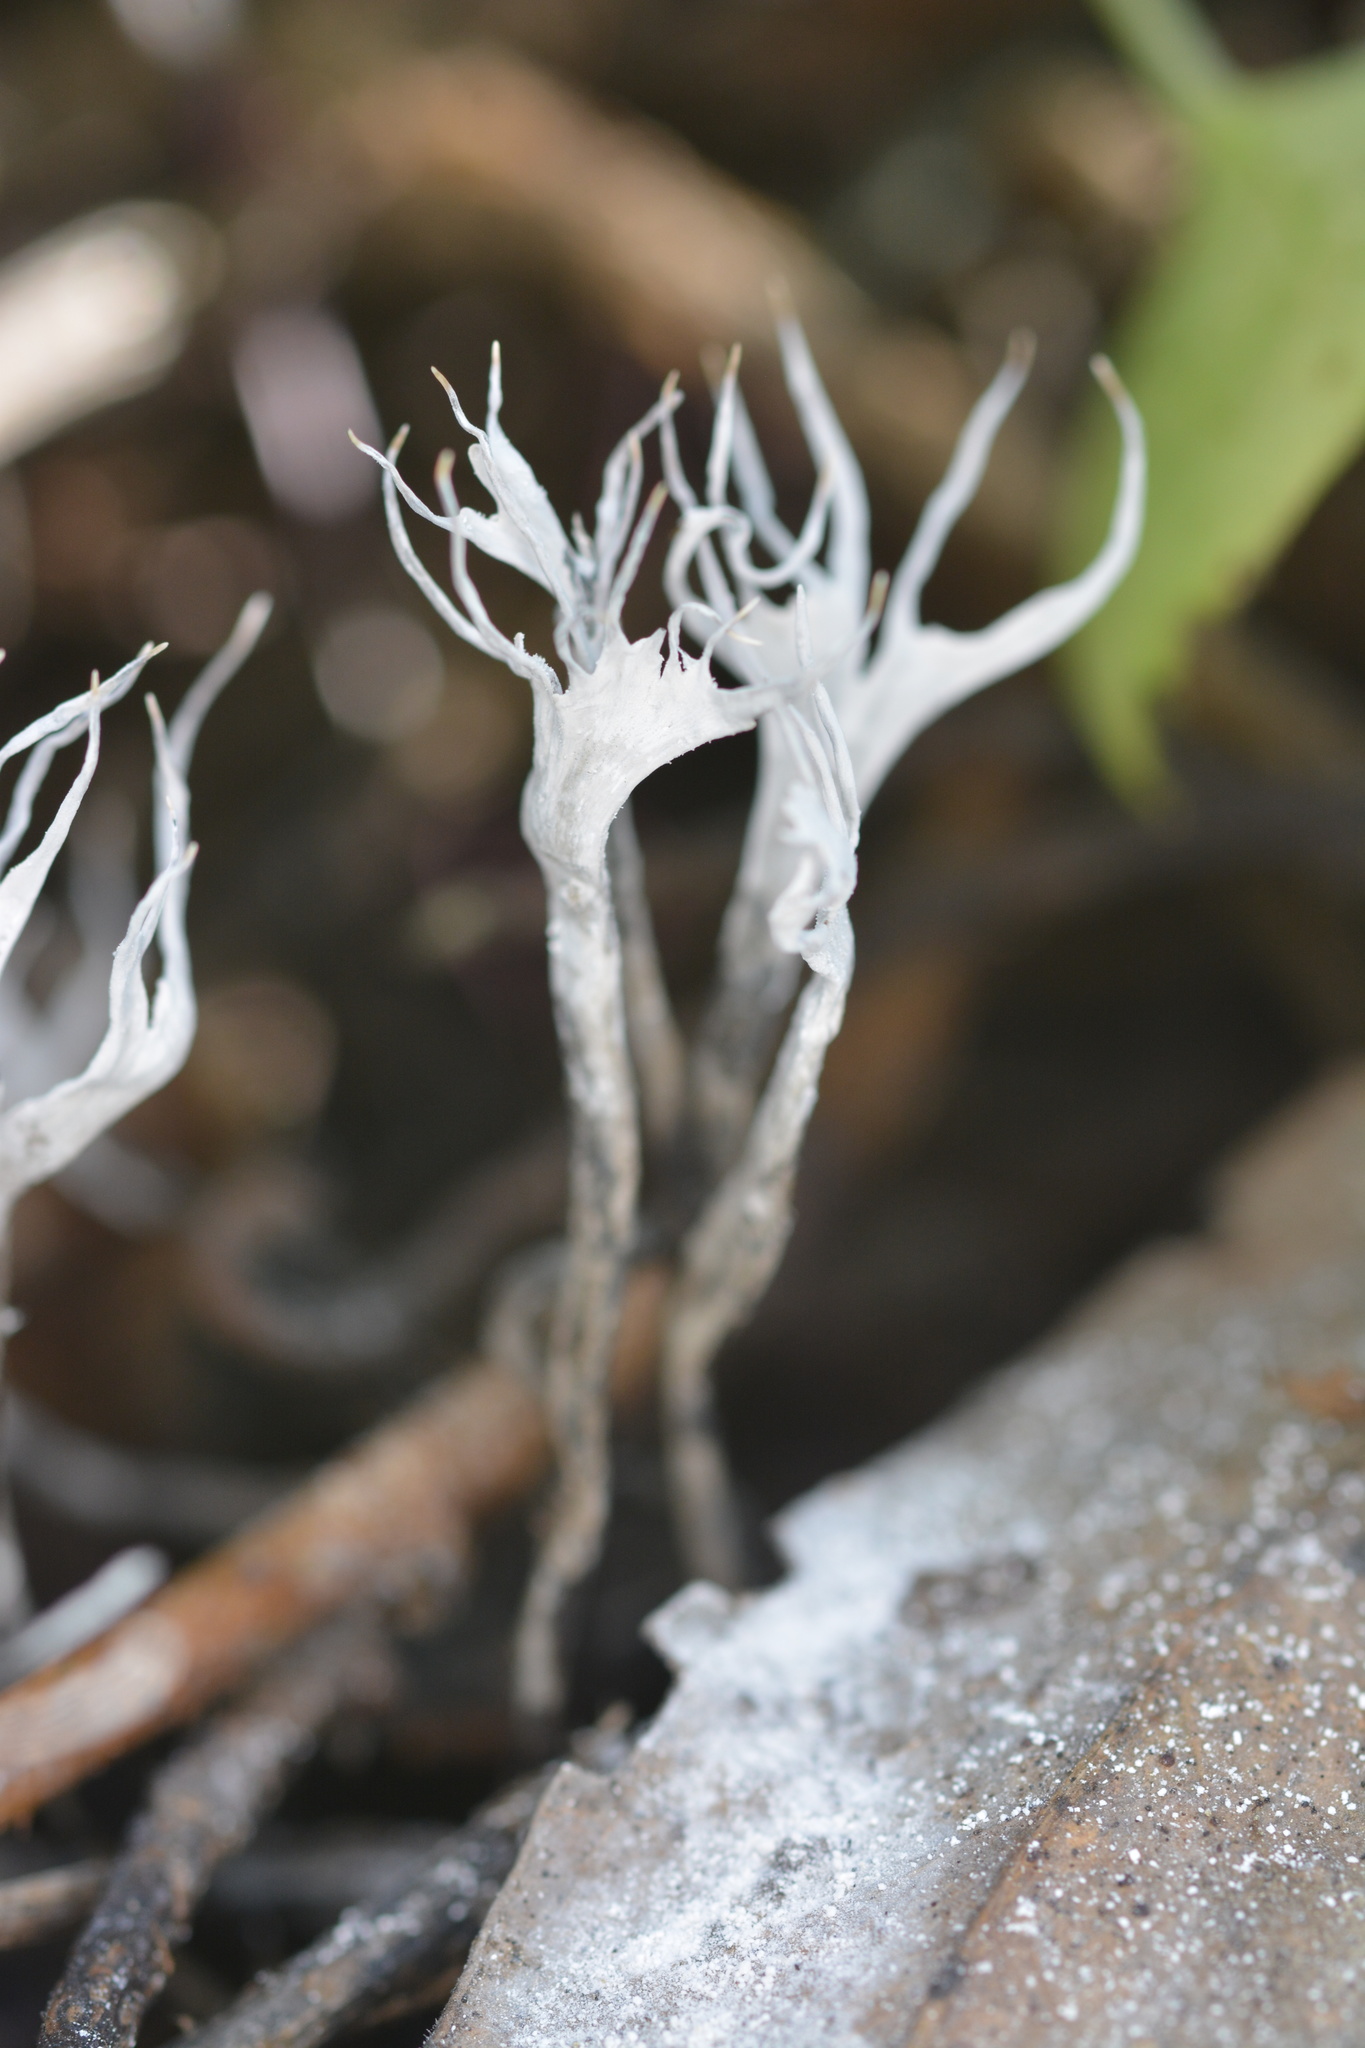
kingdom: Fungi
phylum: Ascomycota
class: Sordariomycetes
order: Xylariales
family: Xylariaceae
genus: Xylaria
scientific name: Xylaria hypoxylon
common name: Candle-snuff fungus
